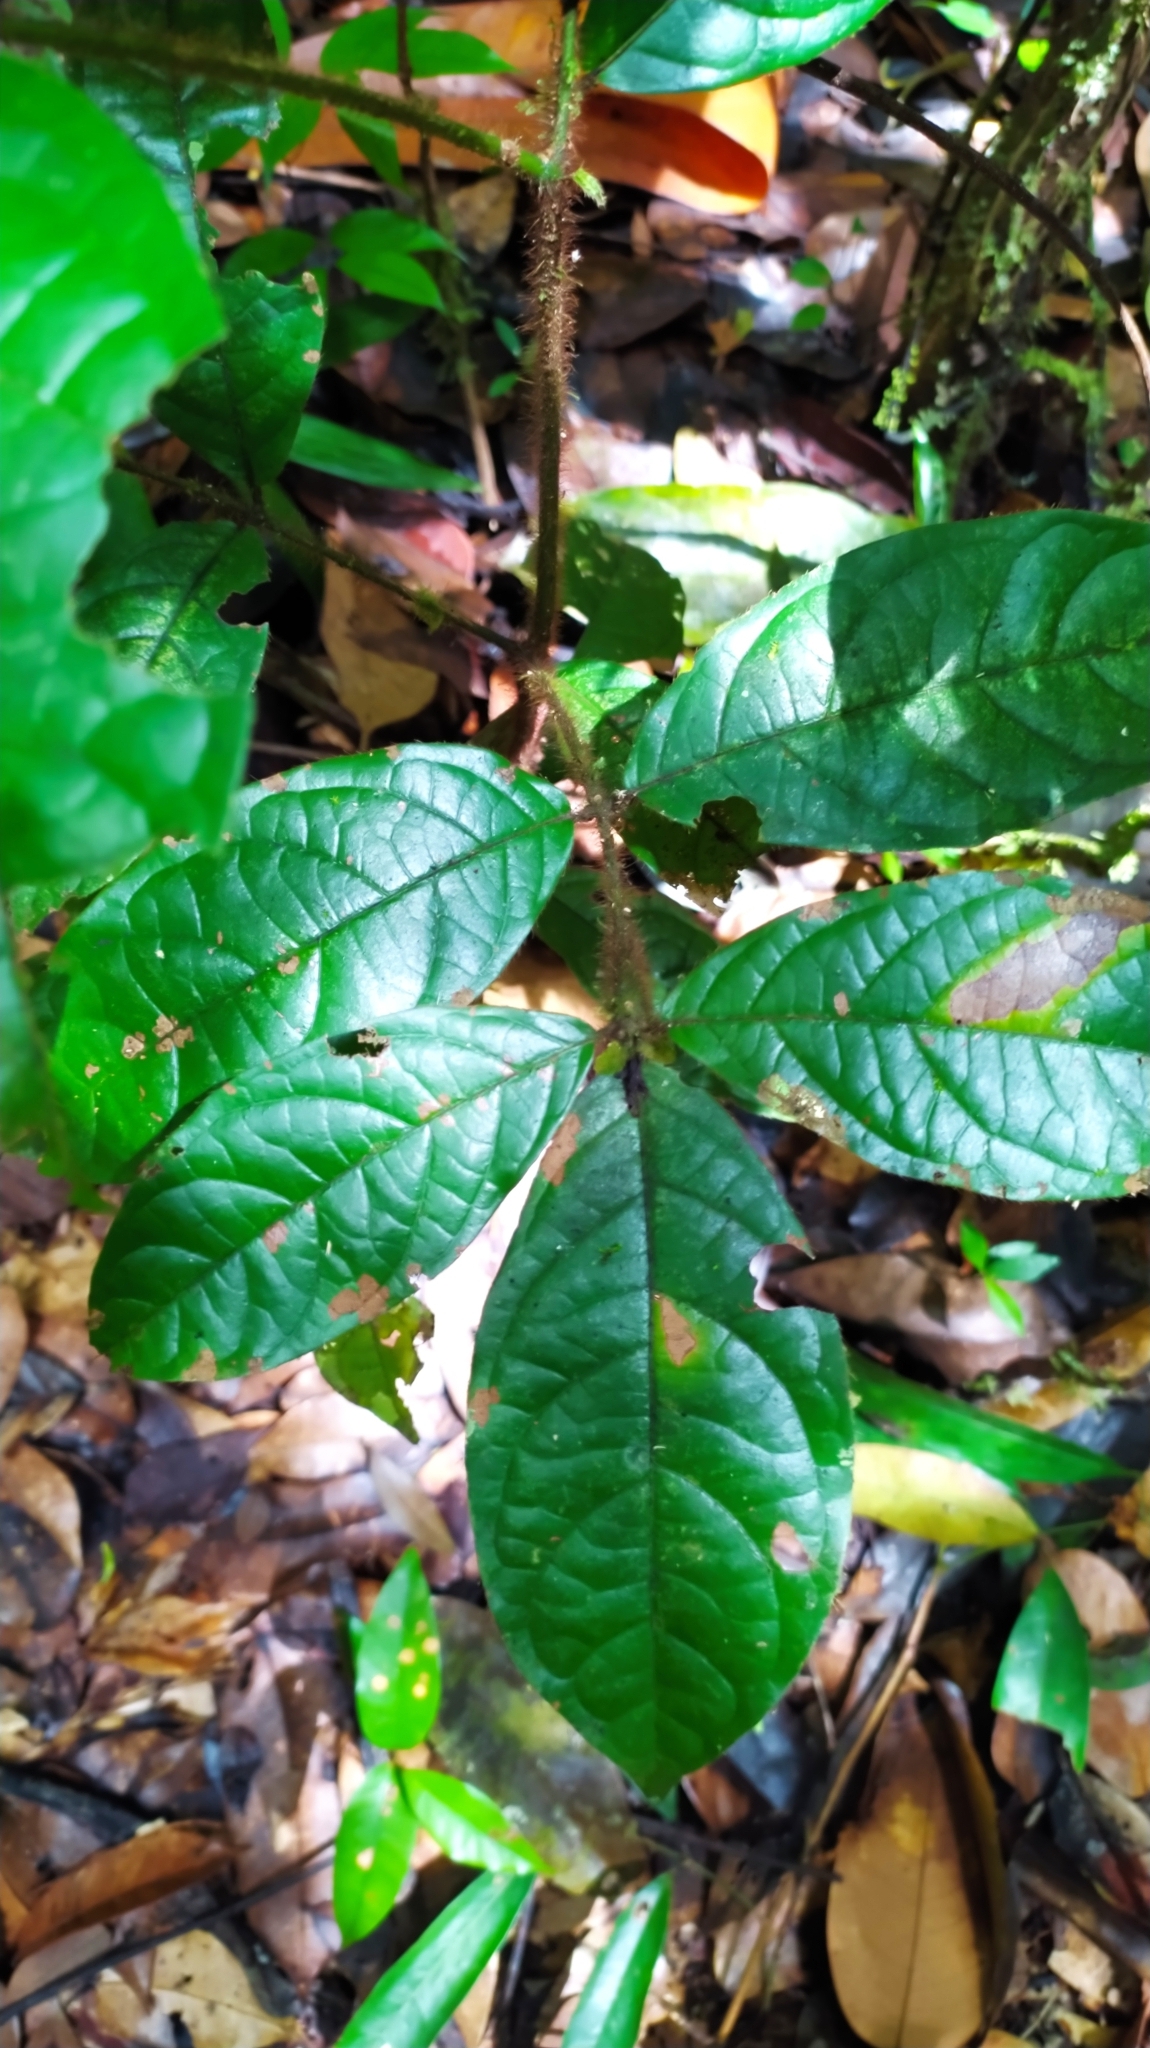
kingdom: Plantae
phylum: Tracheophyta
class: Magnoliopsida
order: Boraginales
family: Cordiaceae
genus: Cordia
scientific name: Cordia nodosa
